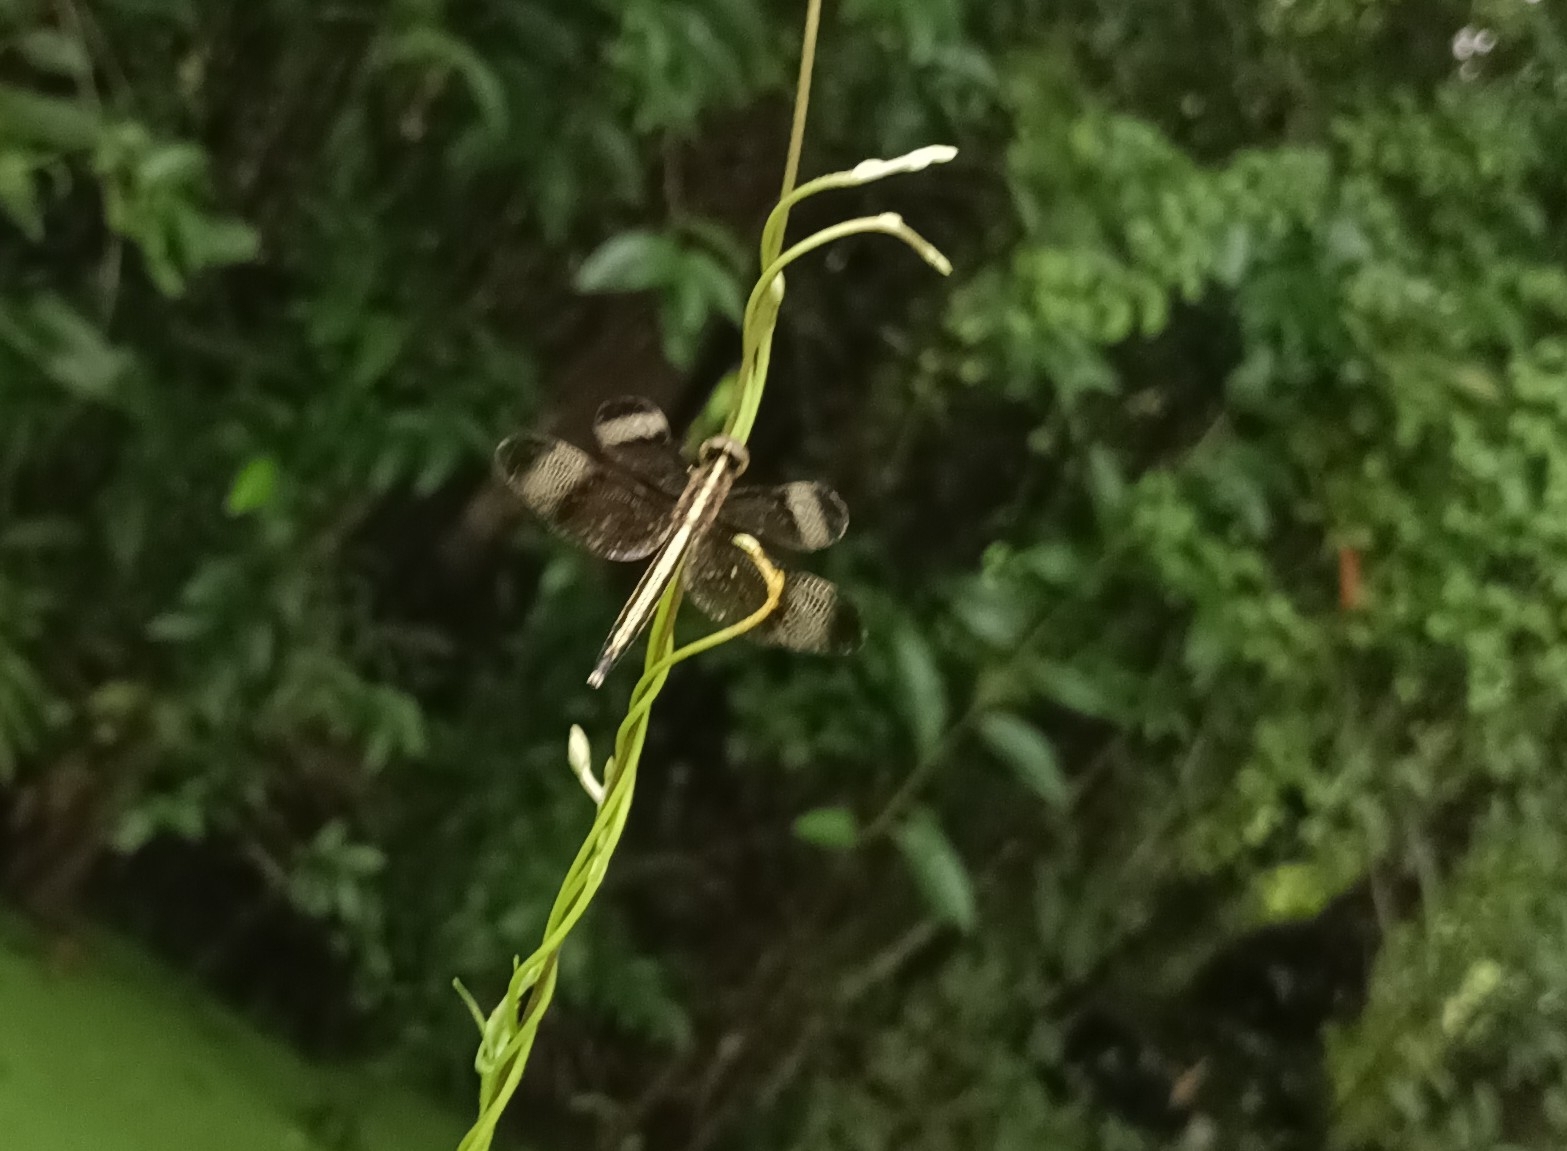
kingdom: Animalia
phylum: Arthropoda
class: Insecta
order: Odonata
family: Libellulidae
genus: Neurothemis
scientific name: Neurothemis tullia
